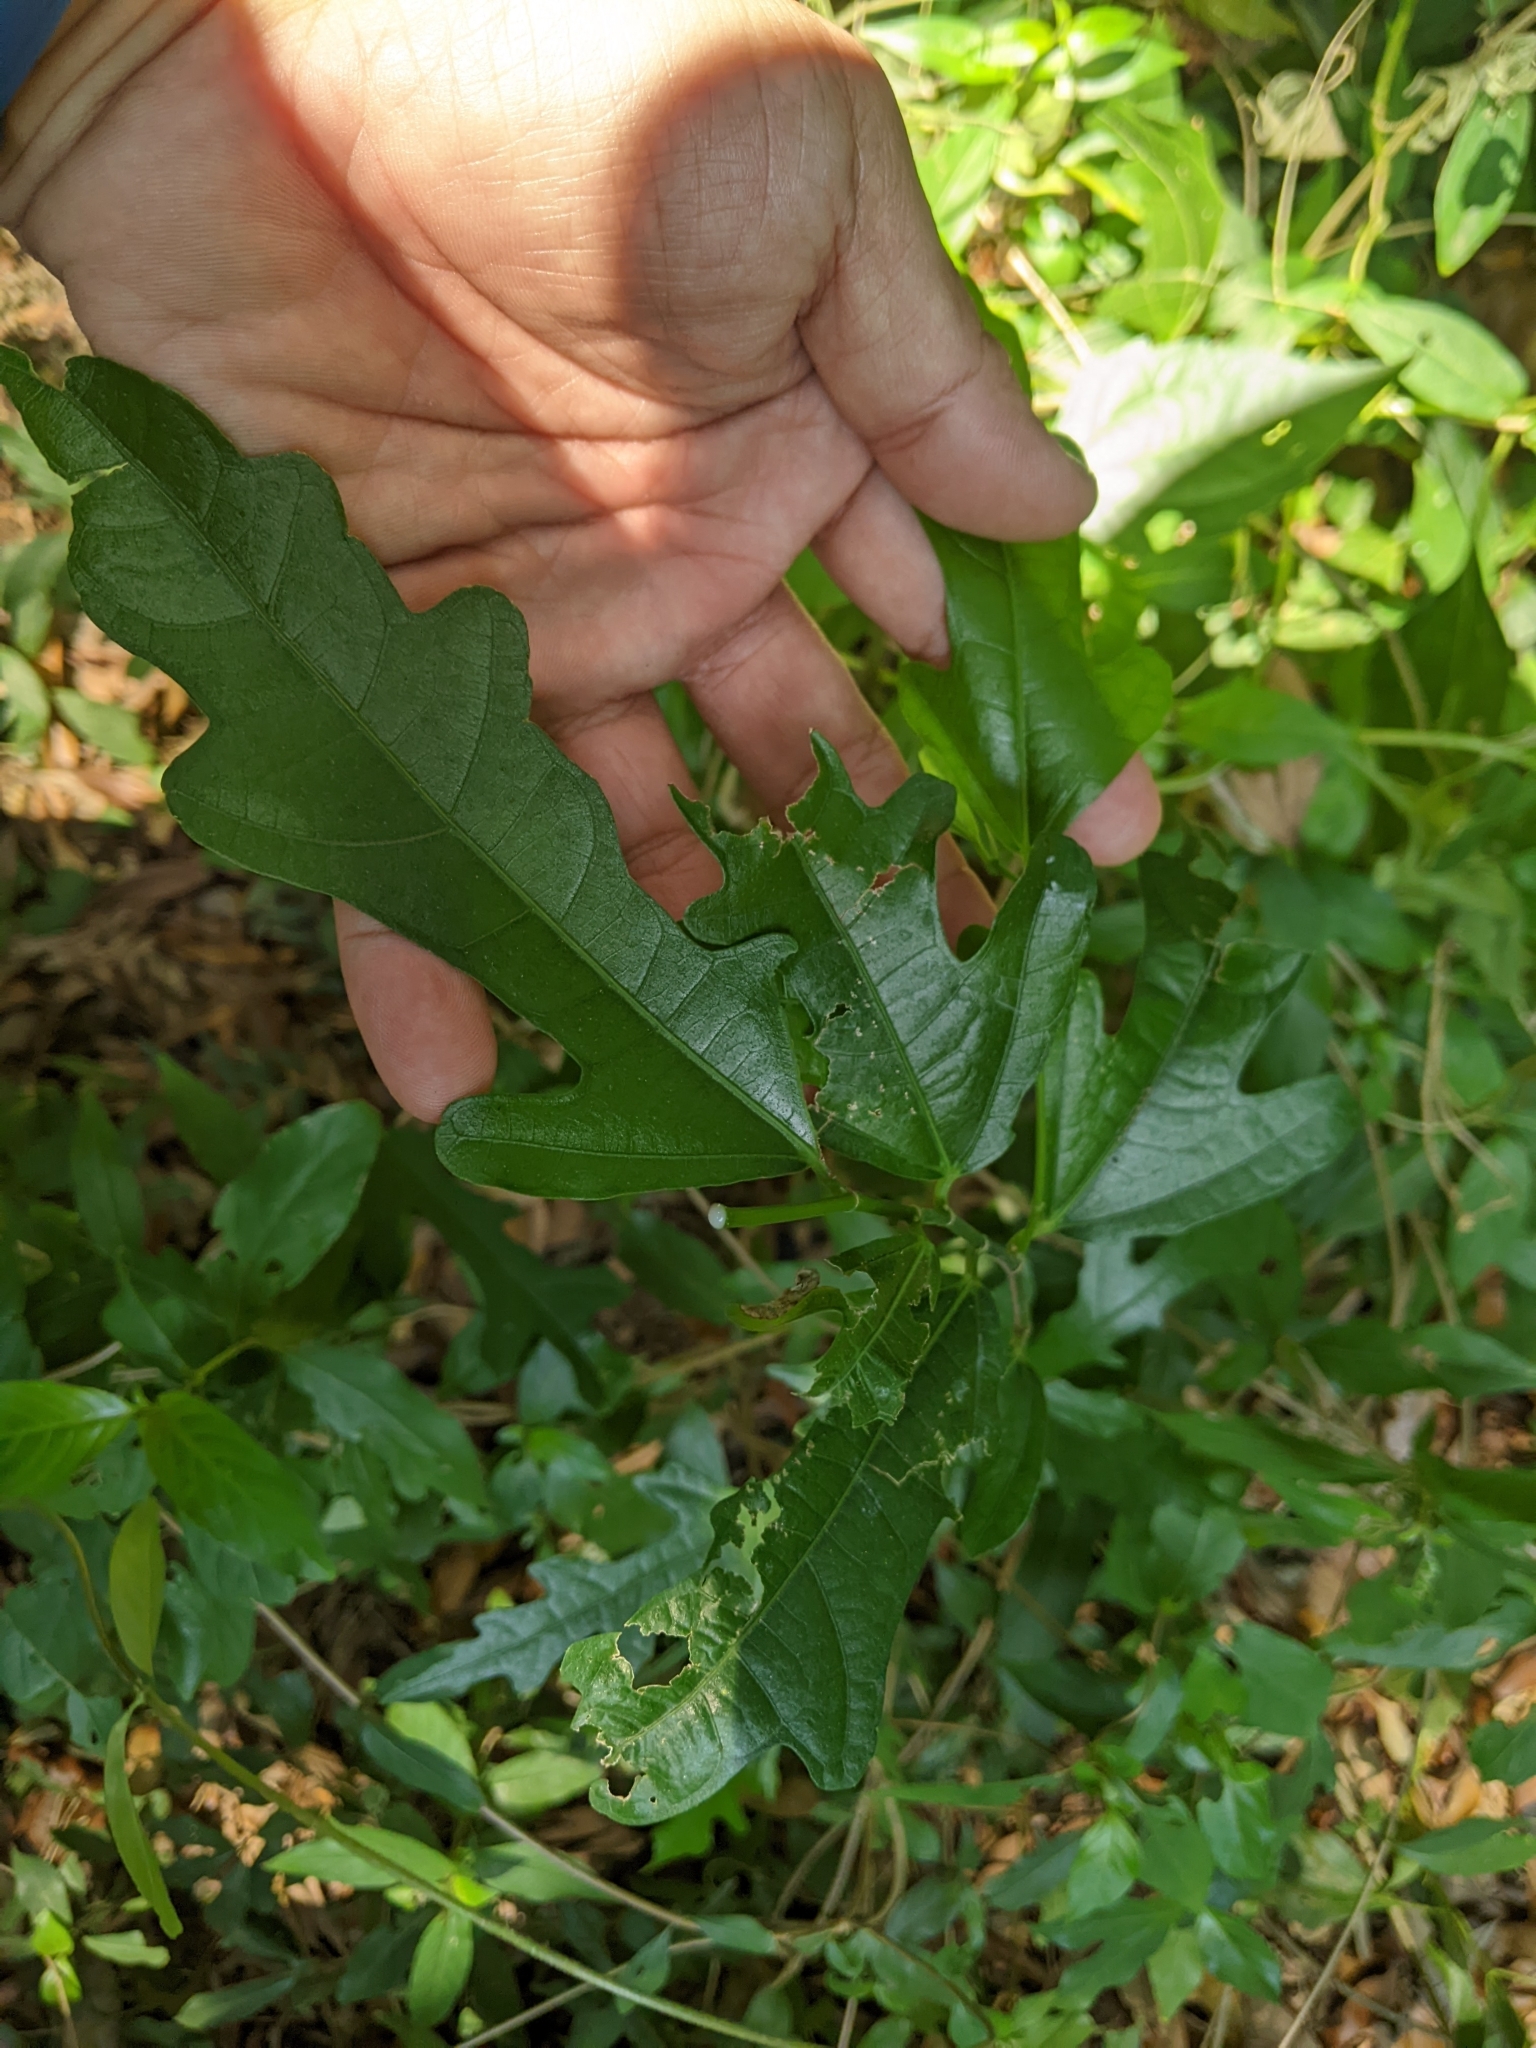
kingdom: Plantae
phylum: Tracheophyta
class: Magnoliopsida
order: Rosales
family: Moraceae
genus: Ficus
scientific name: Ficus ampelos
